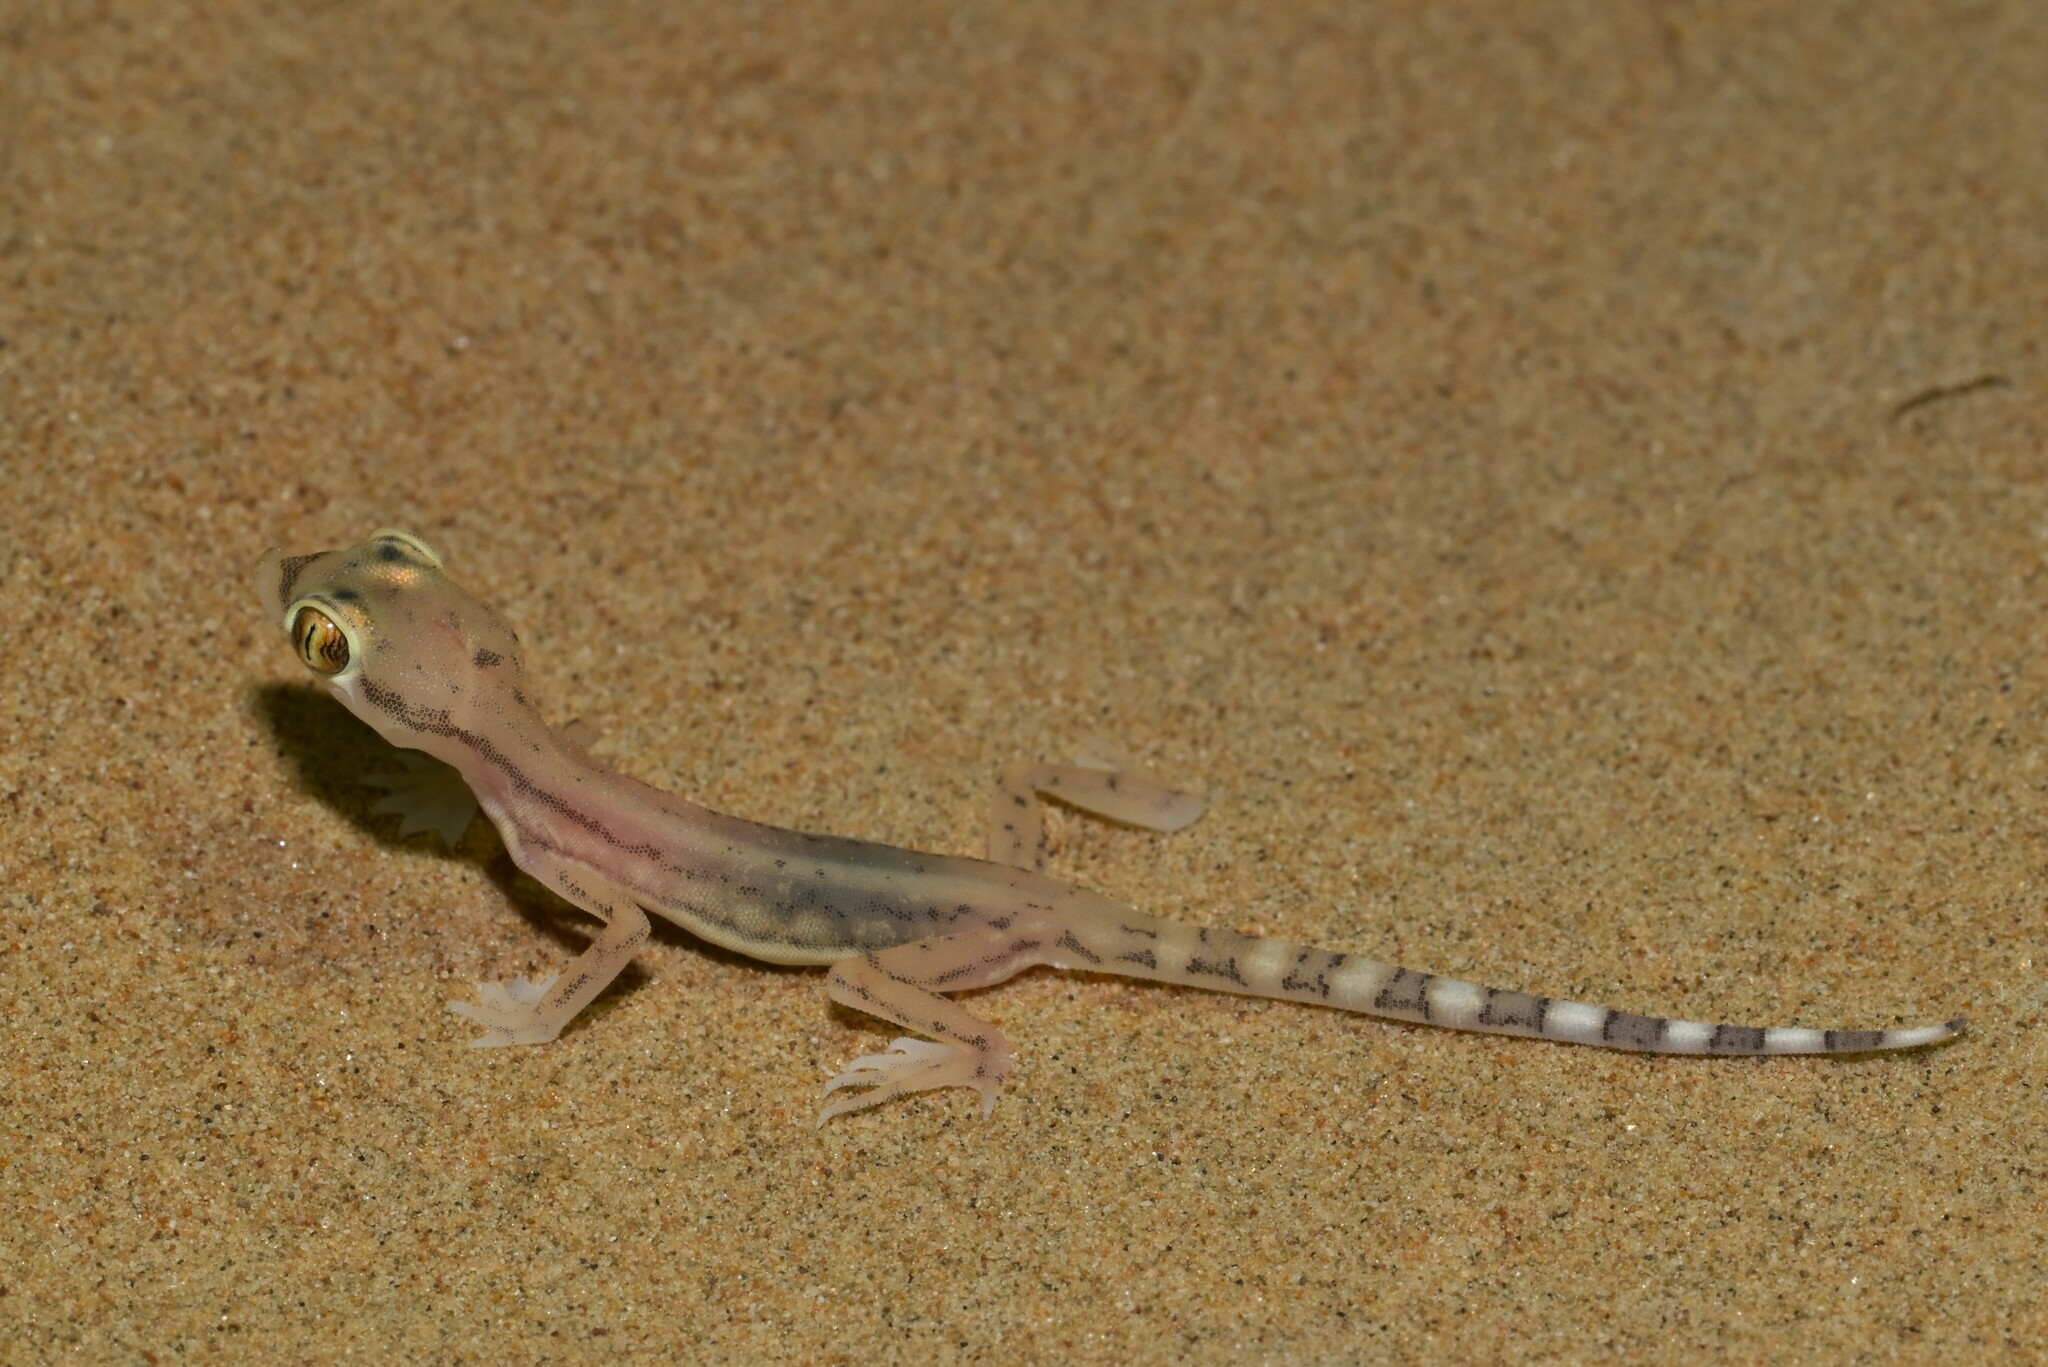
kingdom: Animalia
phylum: Chordata
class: Squamata
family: Gekkonidae
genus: Trigonodactylus
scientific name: Trigonodactylus arabicus
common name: Arabian sand gecko
